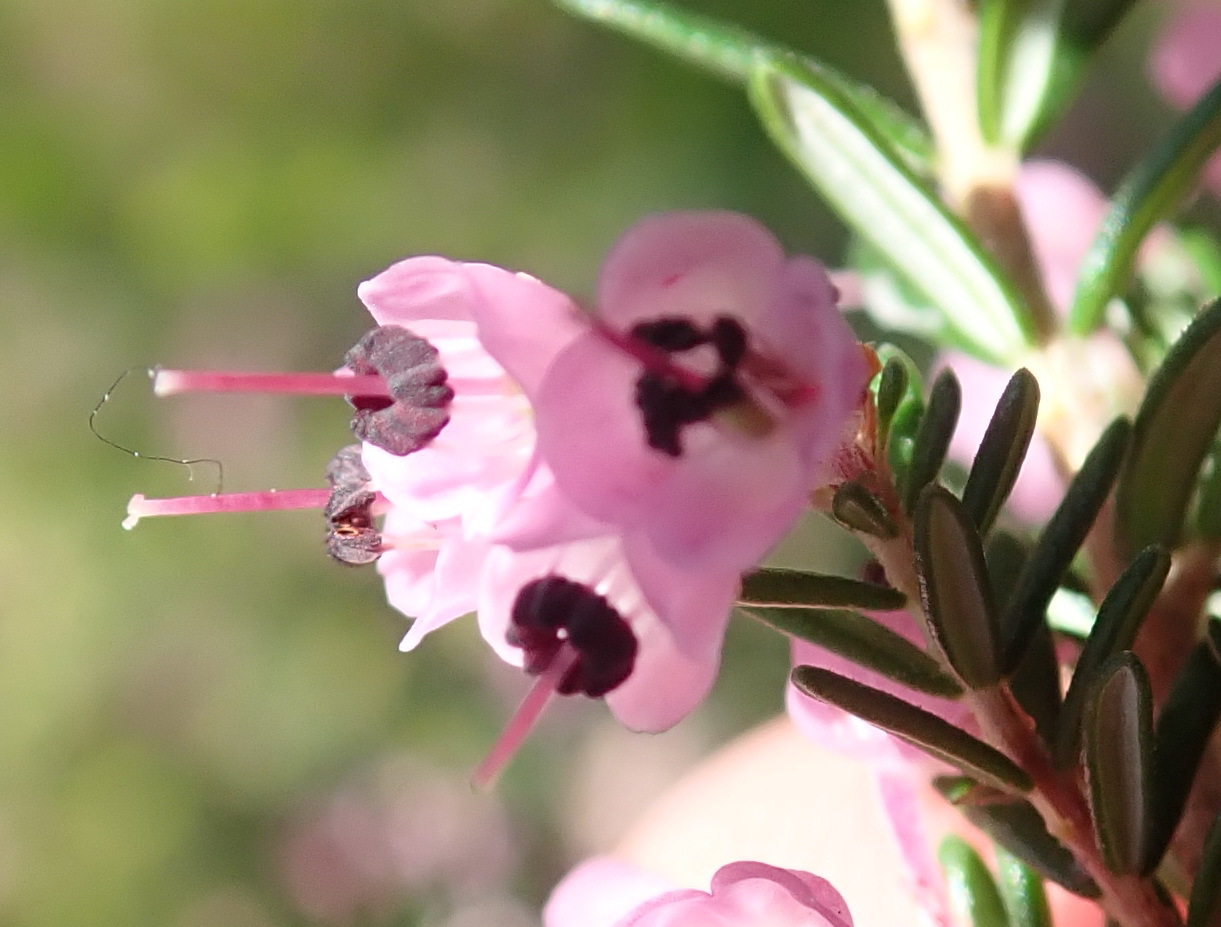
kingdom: Plantae
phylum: Tracheophyta
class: Magnoliopsida
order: Ericales
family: Ericaceae
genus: Erica
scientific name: Erica canaliculata
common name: Hairy grey heather
